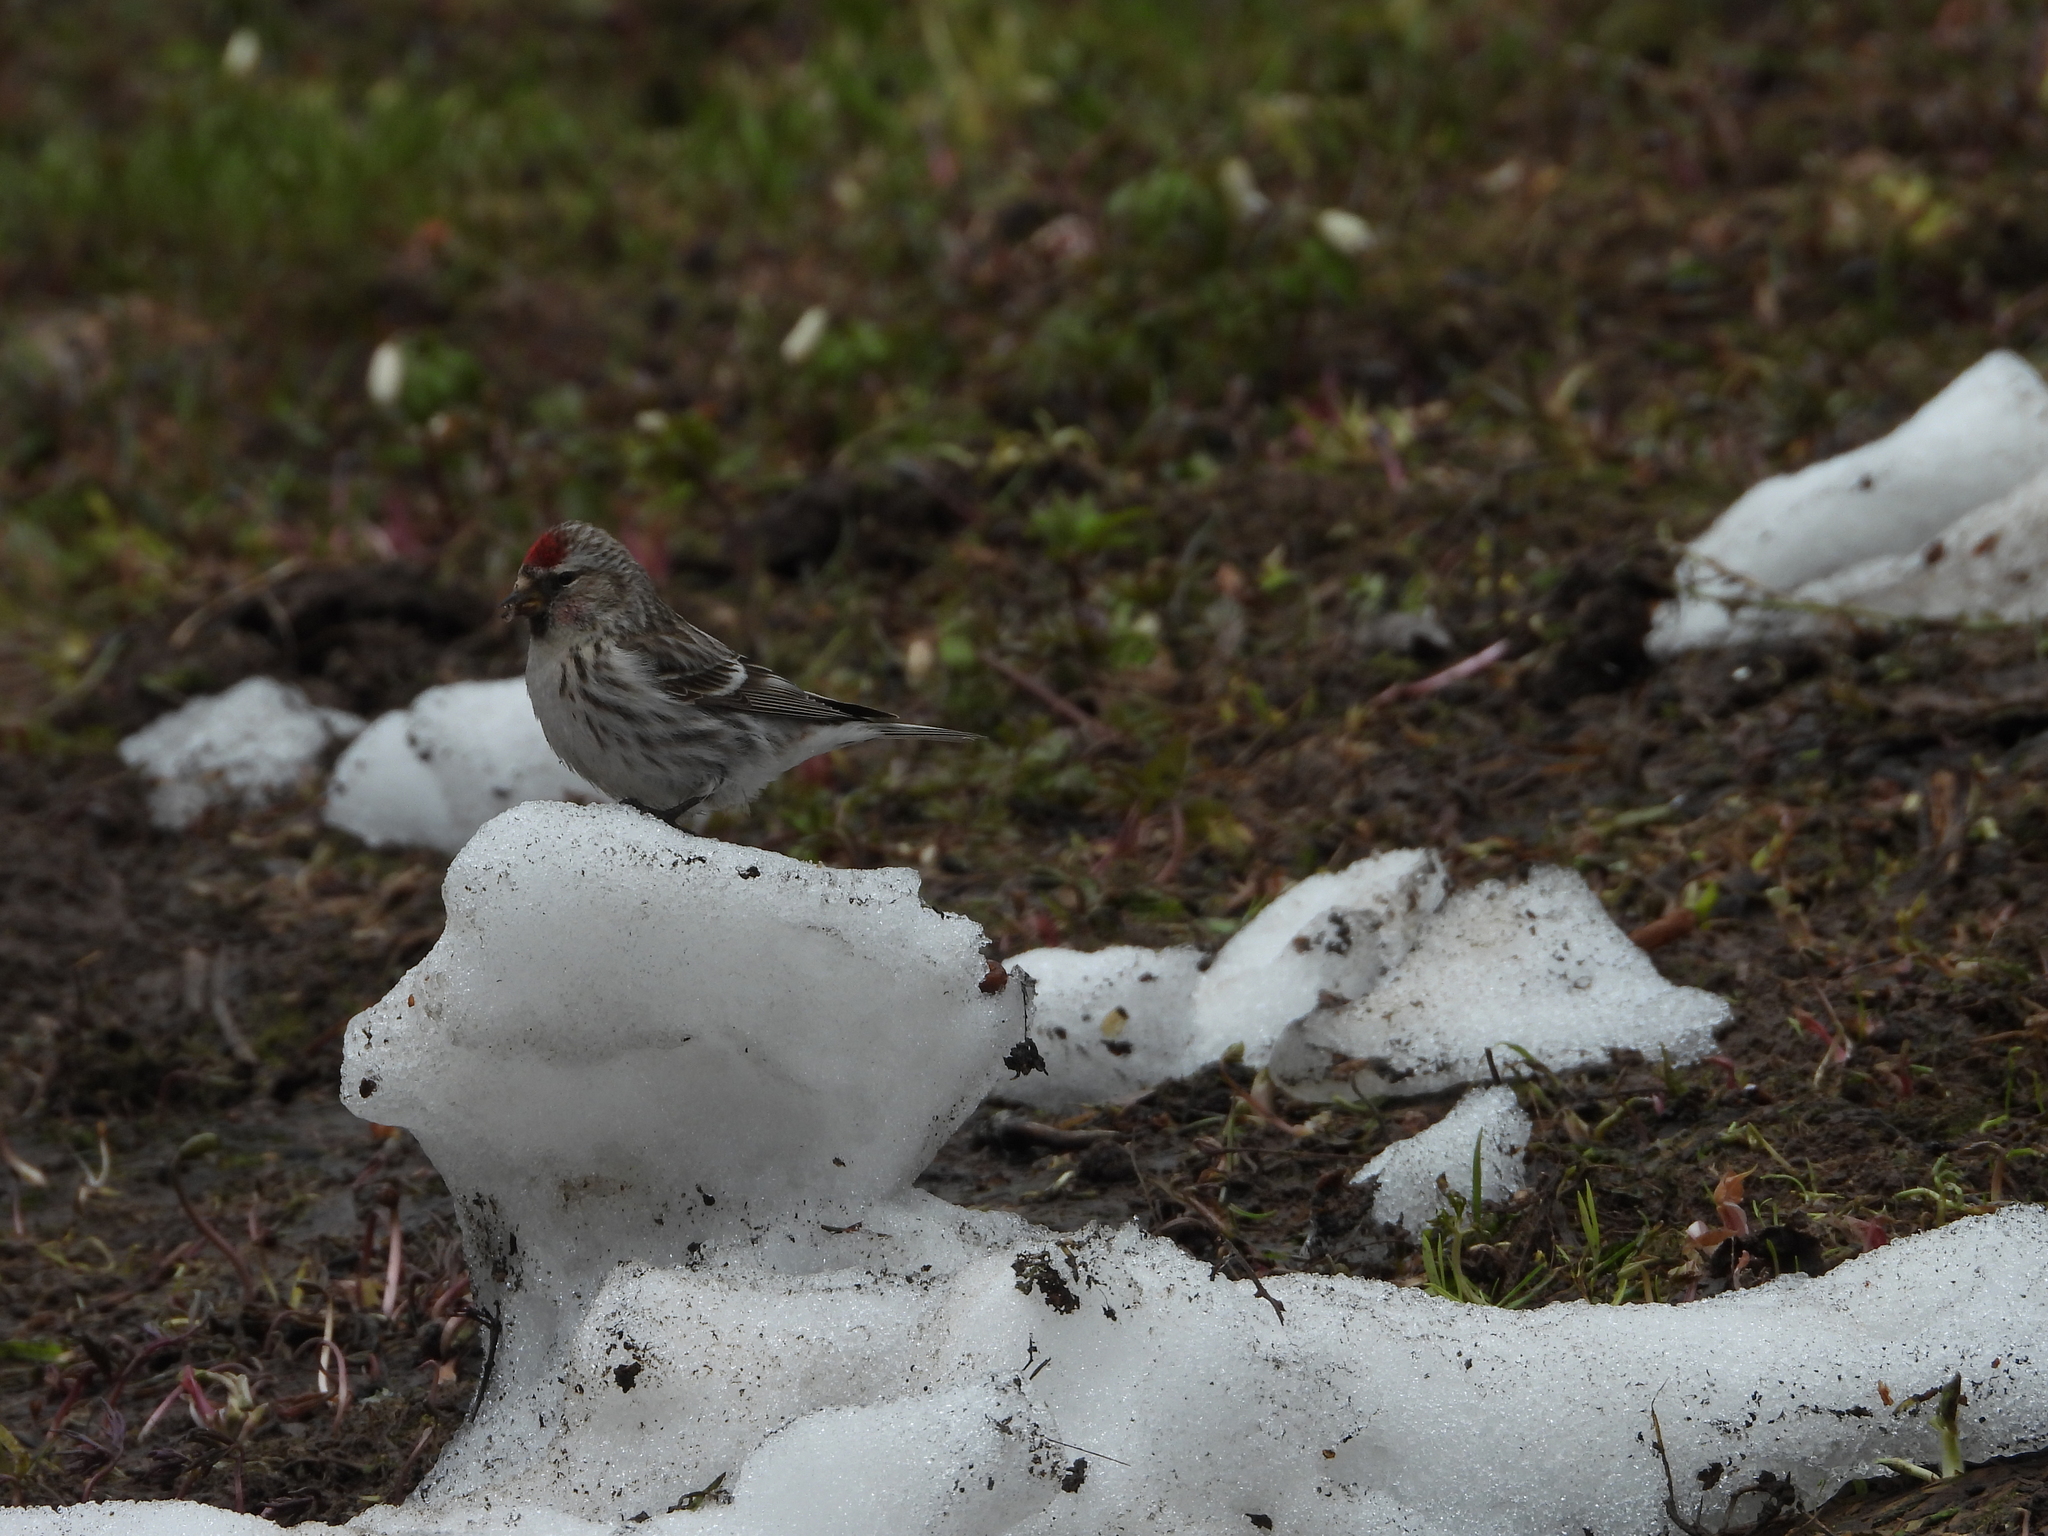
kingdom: Animalia
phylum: Chordata
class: Aves
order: Passeriformes
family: Fringillidae
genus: Acanthis
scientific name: Acanthis flammea
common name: Common redpoll
